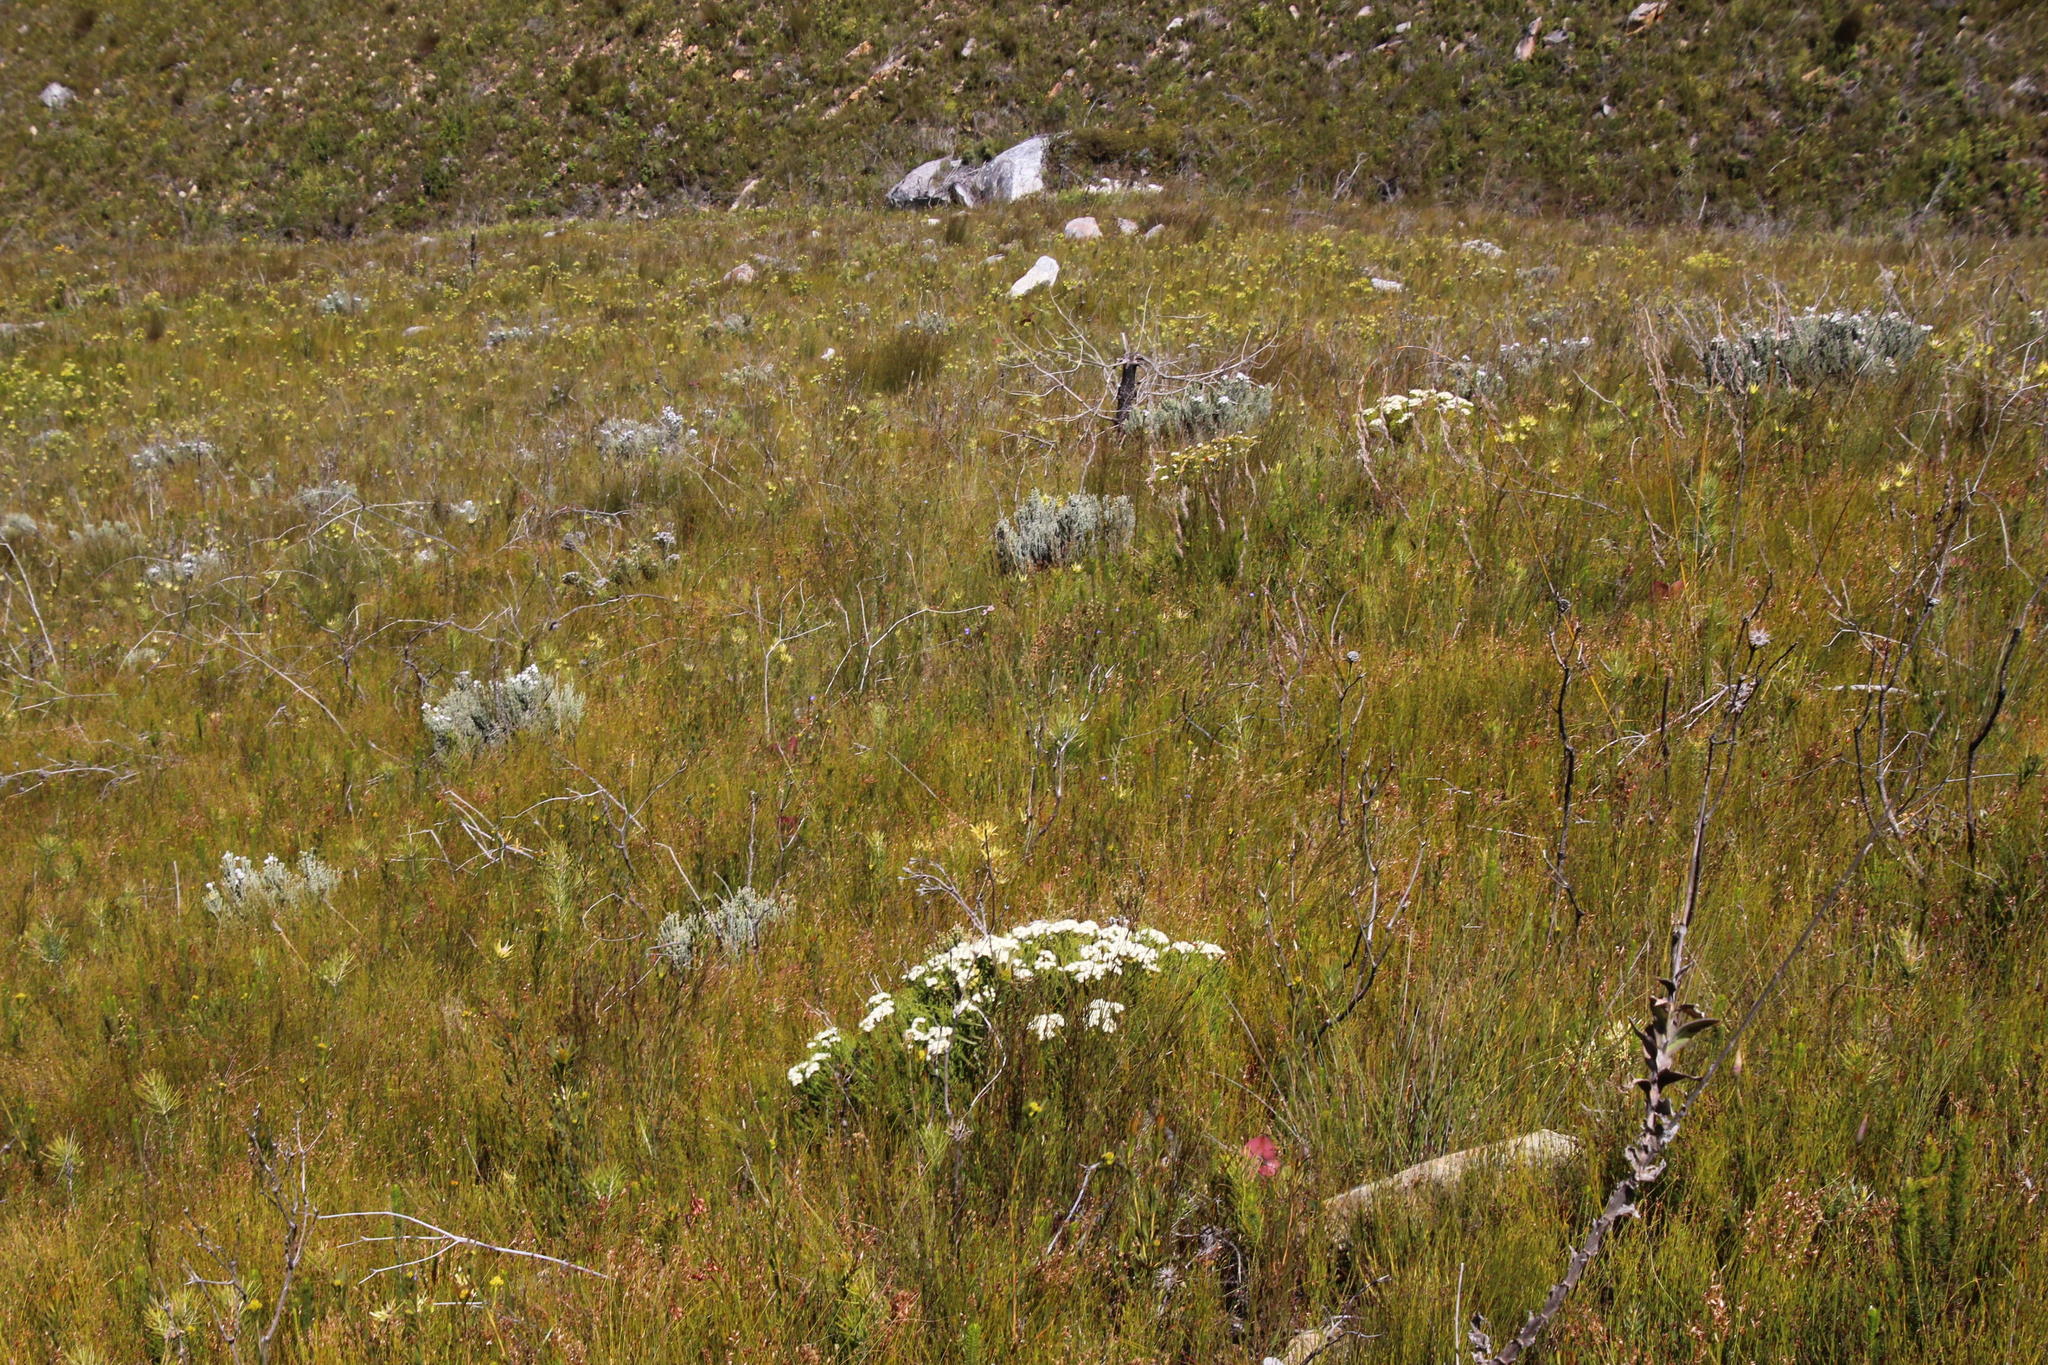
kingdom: Plantae
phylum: Tracheophyta
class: Magnoliopsida
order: Bruniales
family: Bruniaceae
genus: Brunia
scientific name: Brunia paleacea
